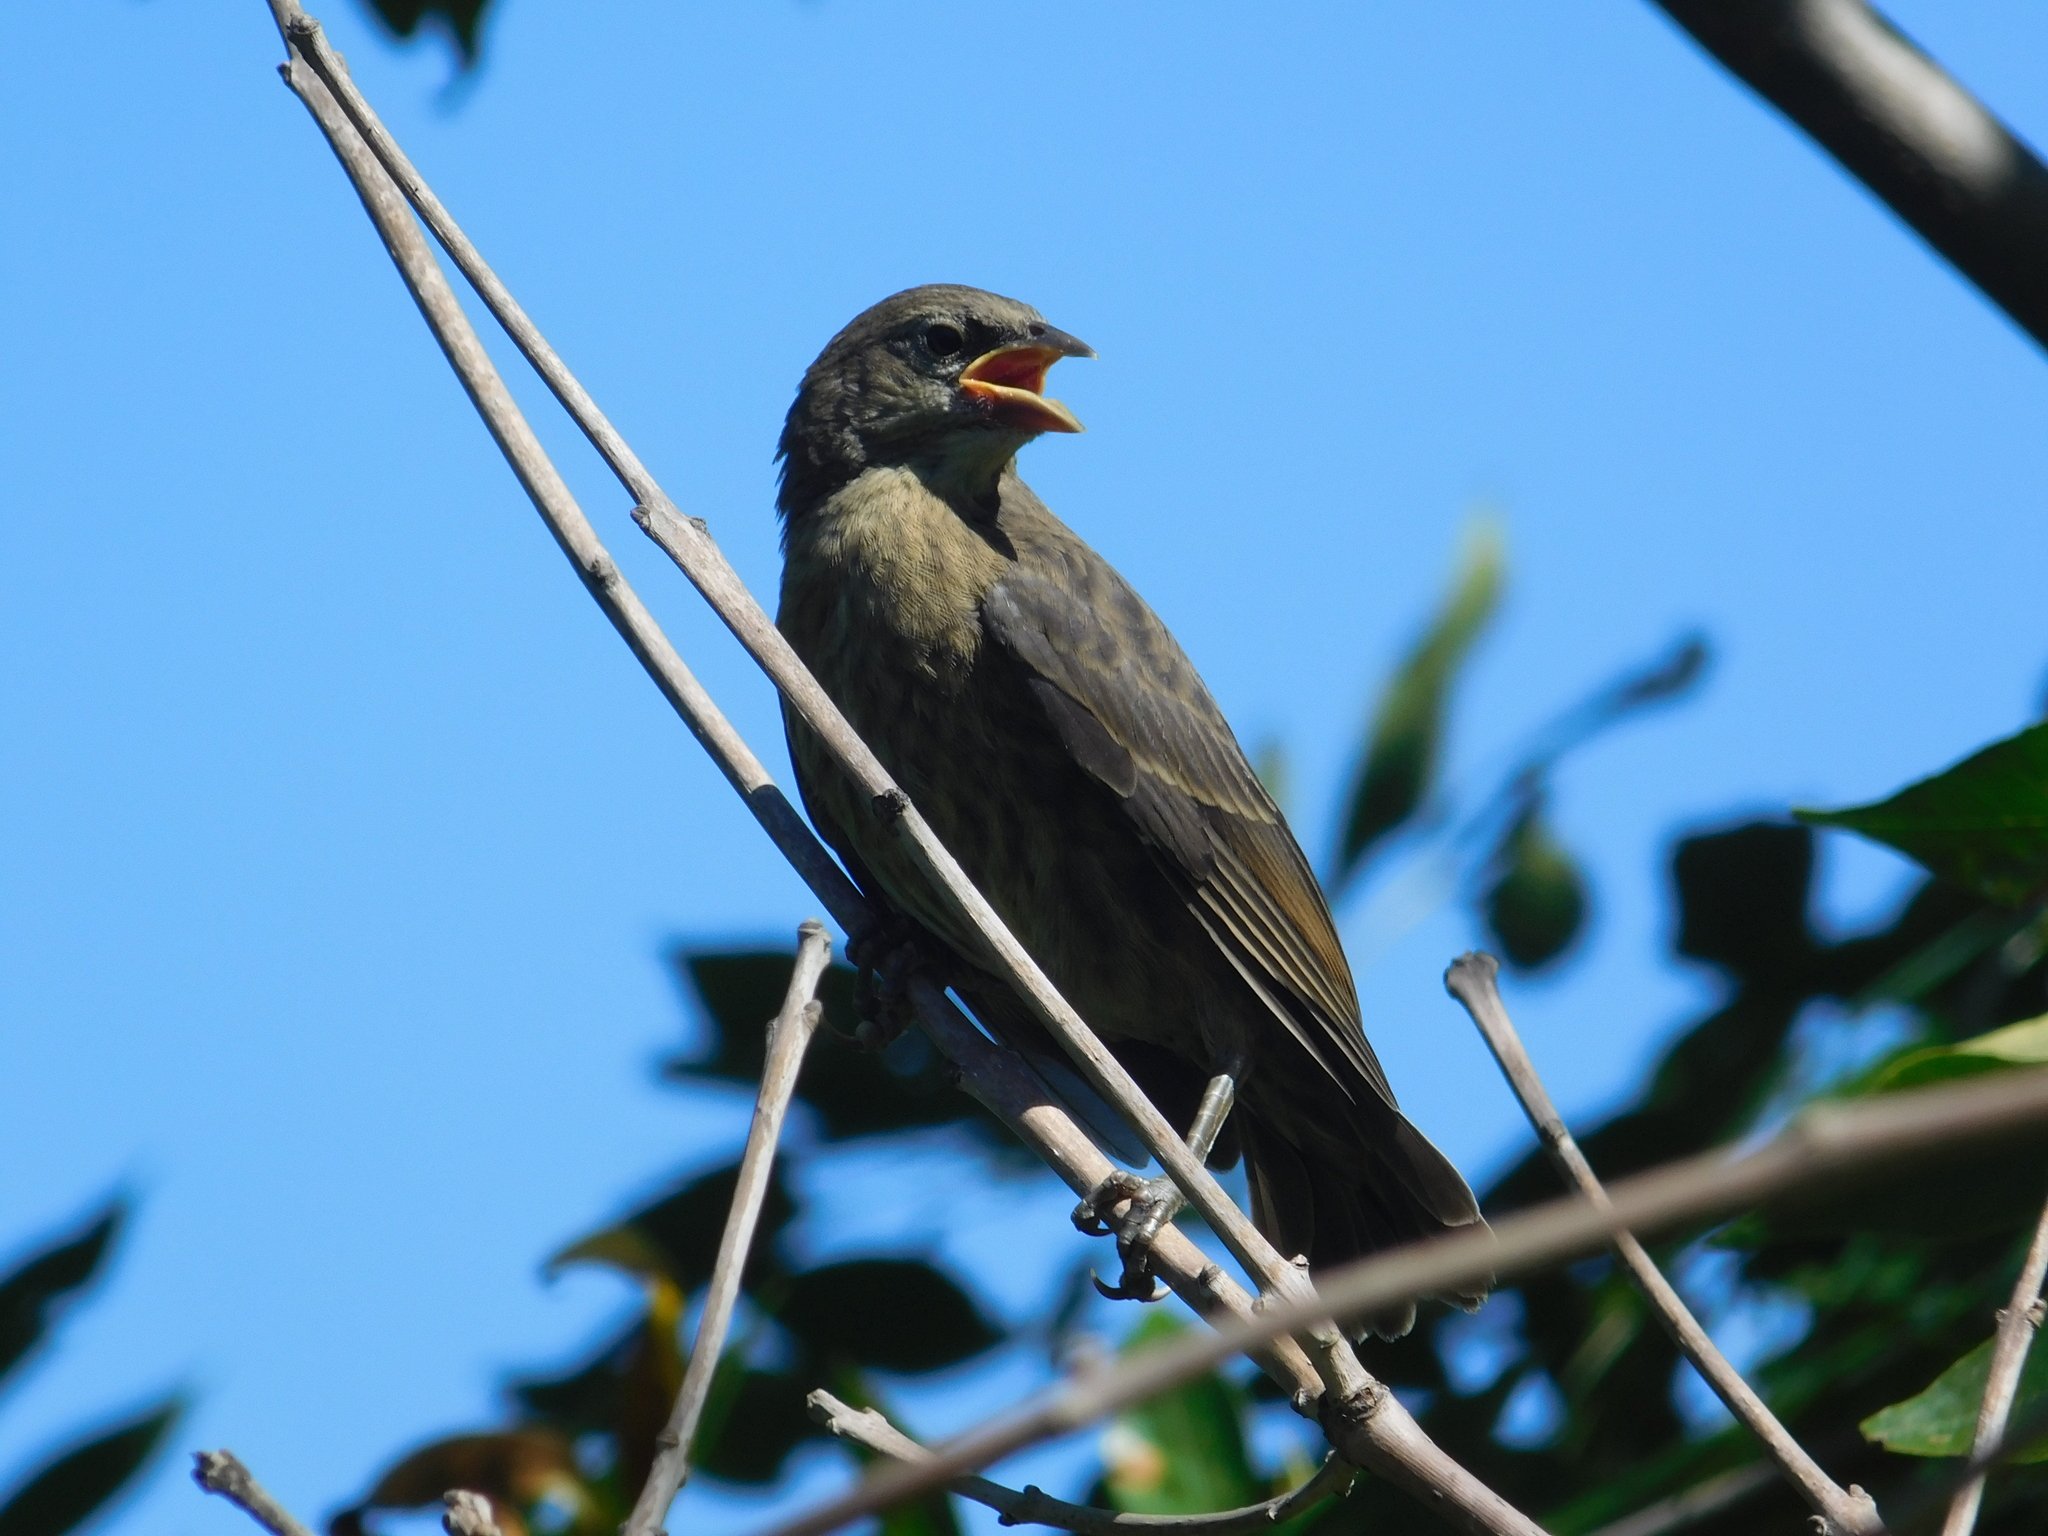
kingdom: Animalia
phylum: Chordata
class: Aves
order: Passeriformes
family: Icteridae
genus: Molothrus
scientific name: Molothrus bonariensis
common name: Shiny cowbird
